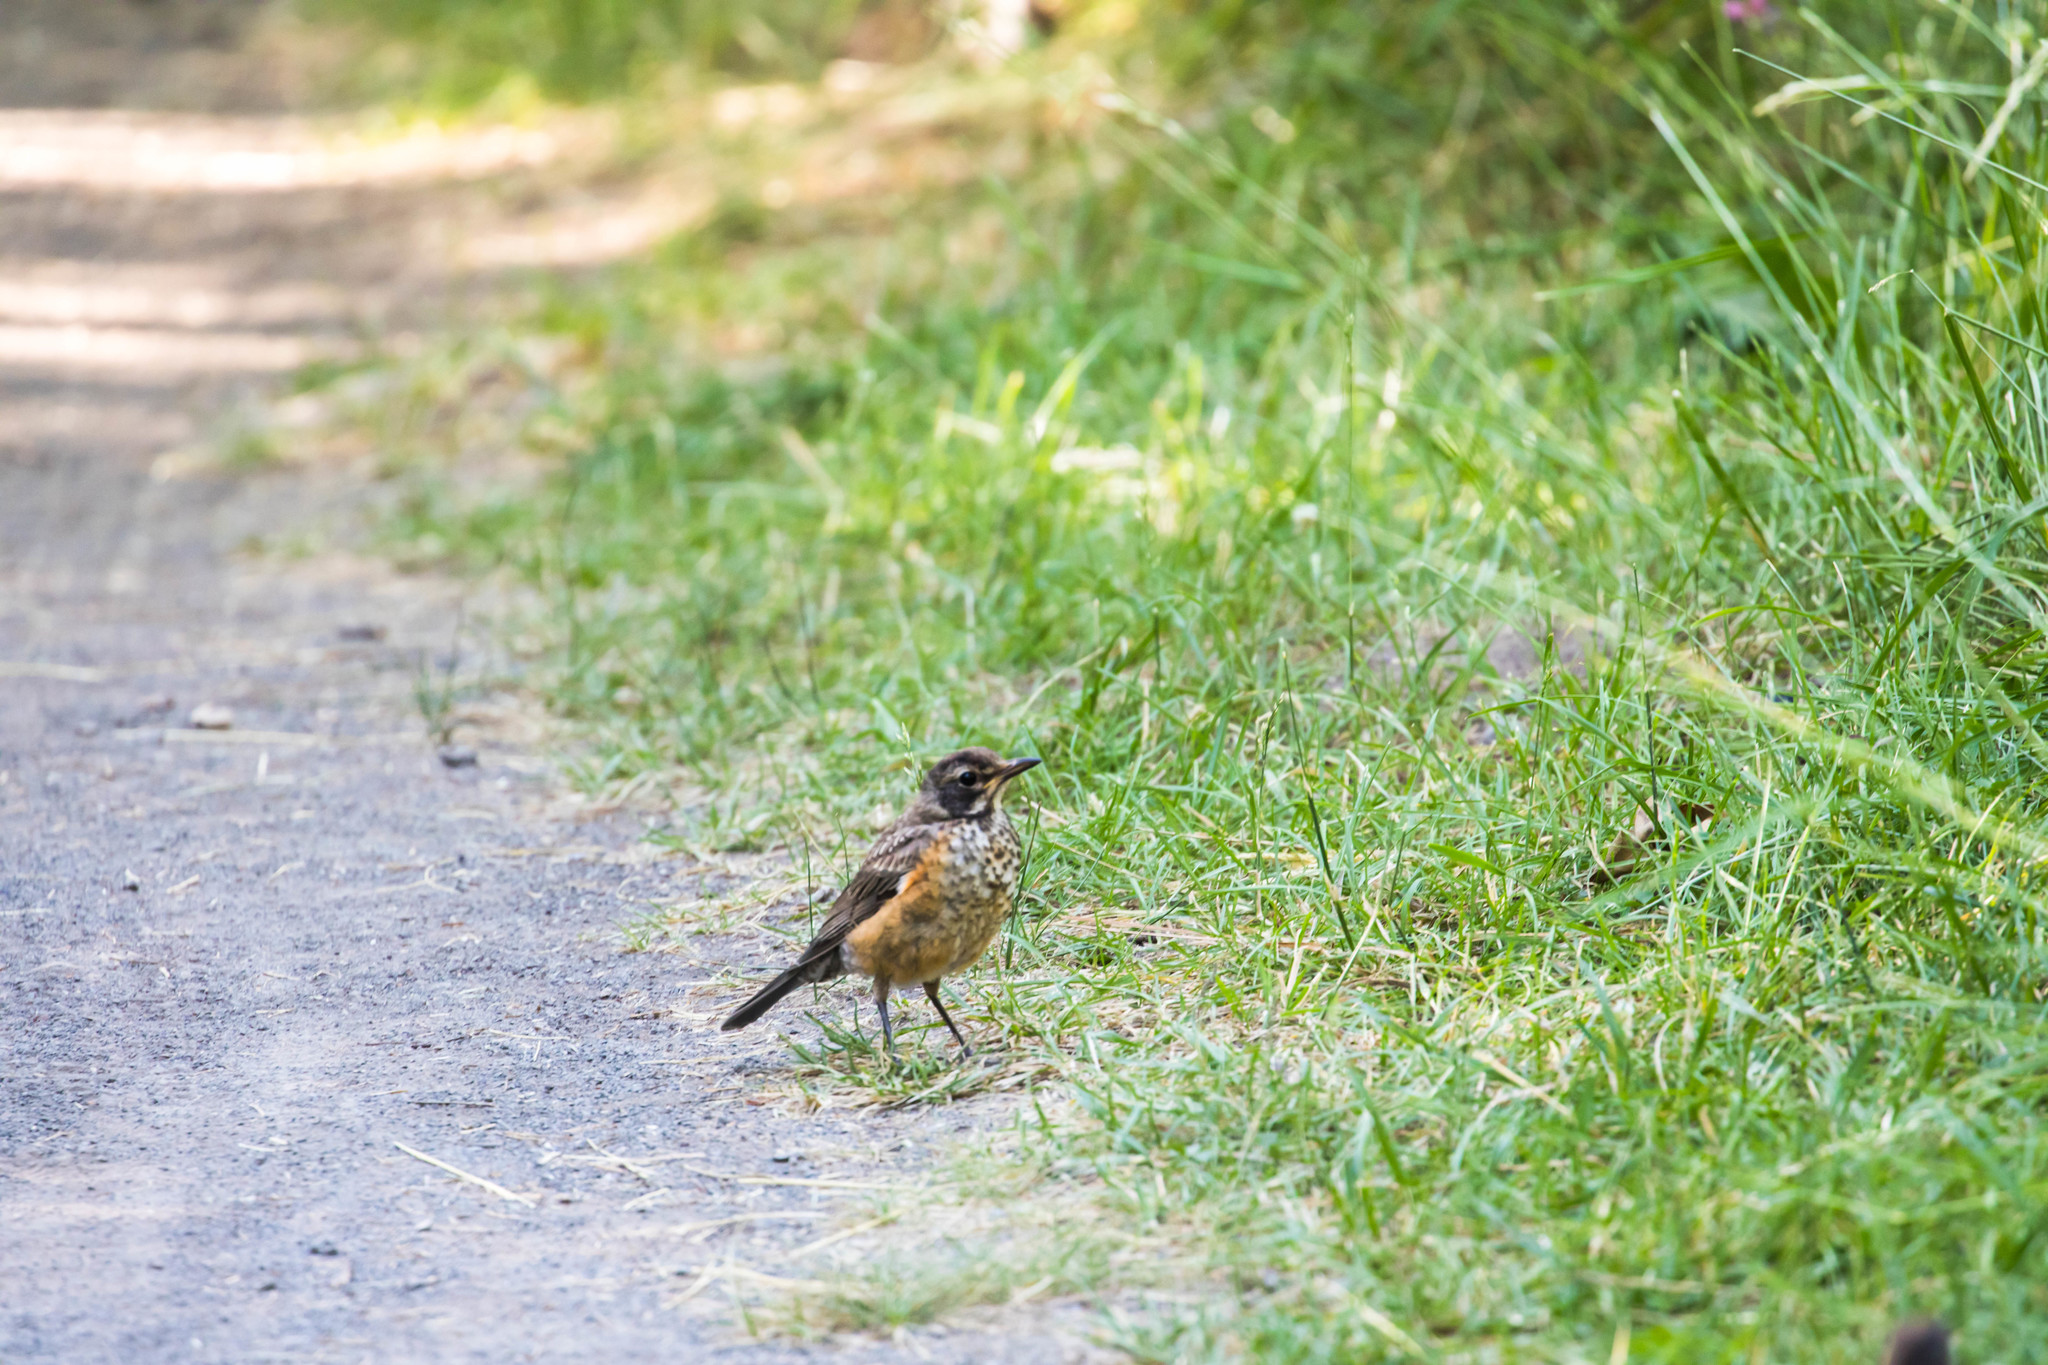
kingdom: Animalia
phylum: Chordata
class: Aves
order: Passeriformes
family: Turdidae
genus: Turdus
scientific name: Turdus migratorius
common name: American robin
